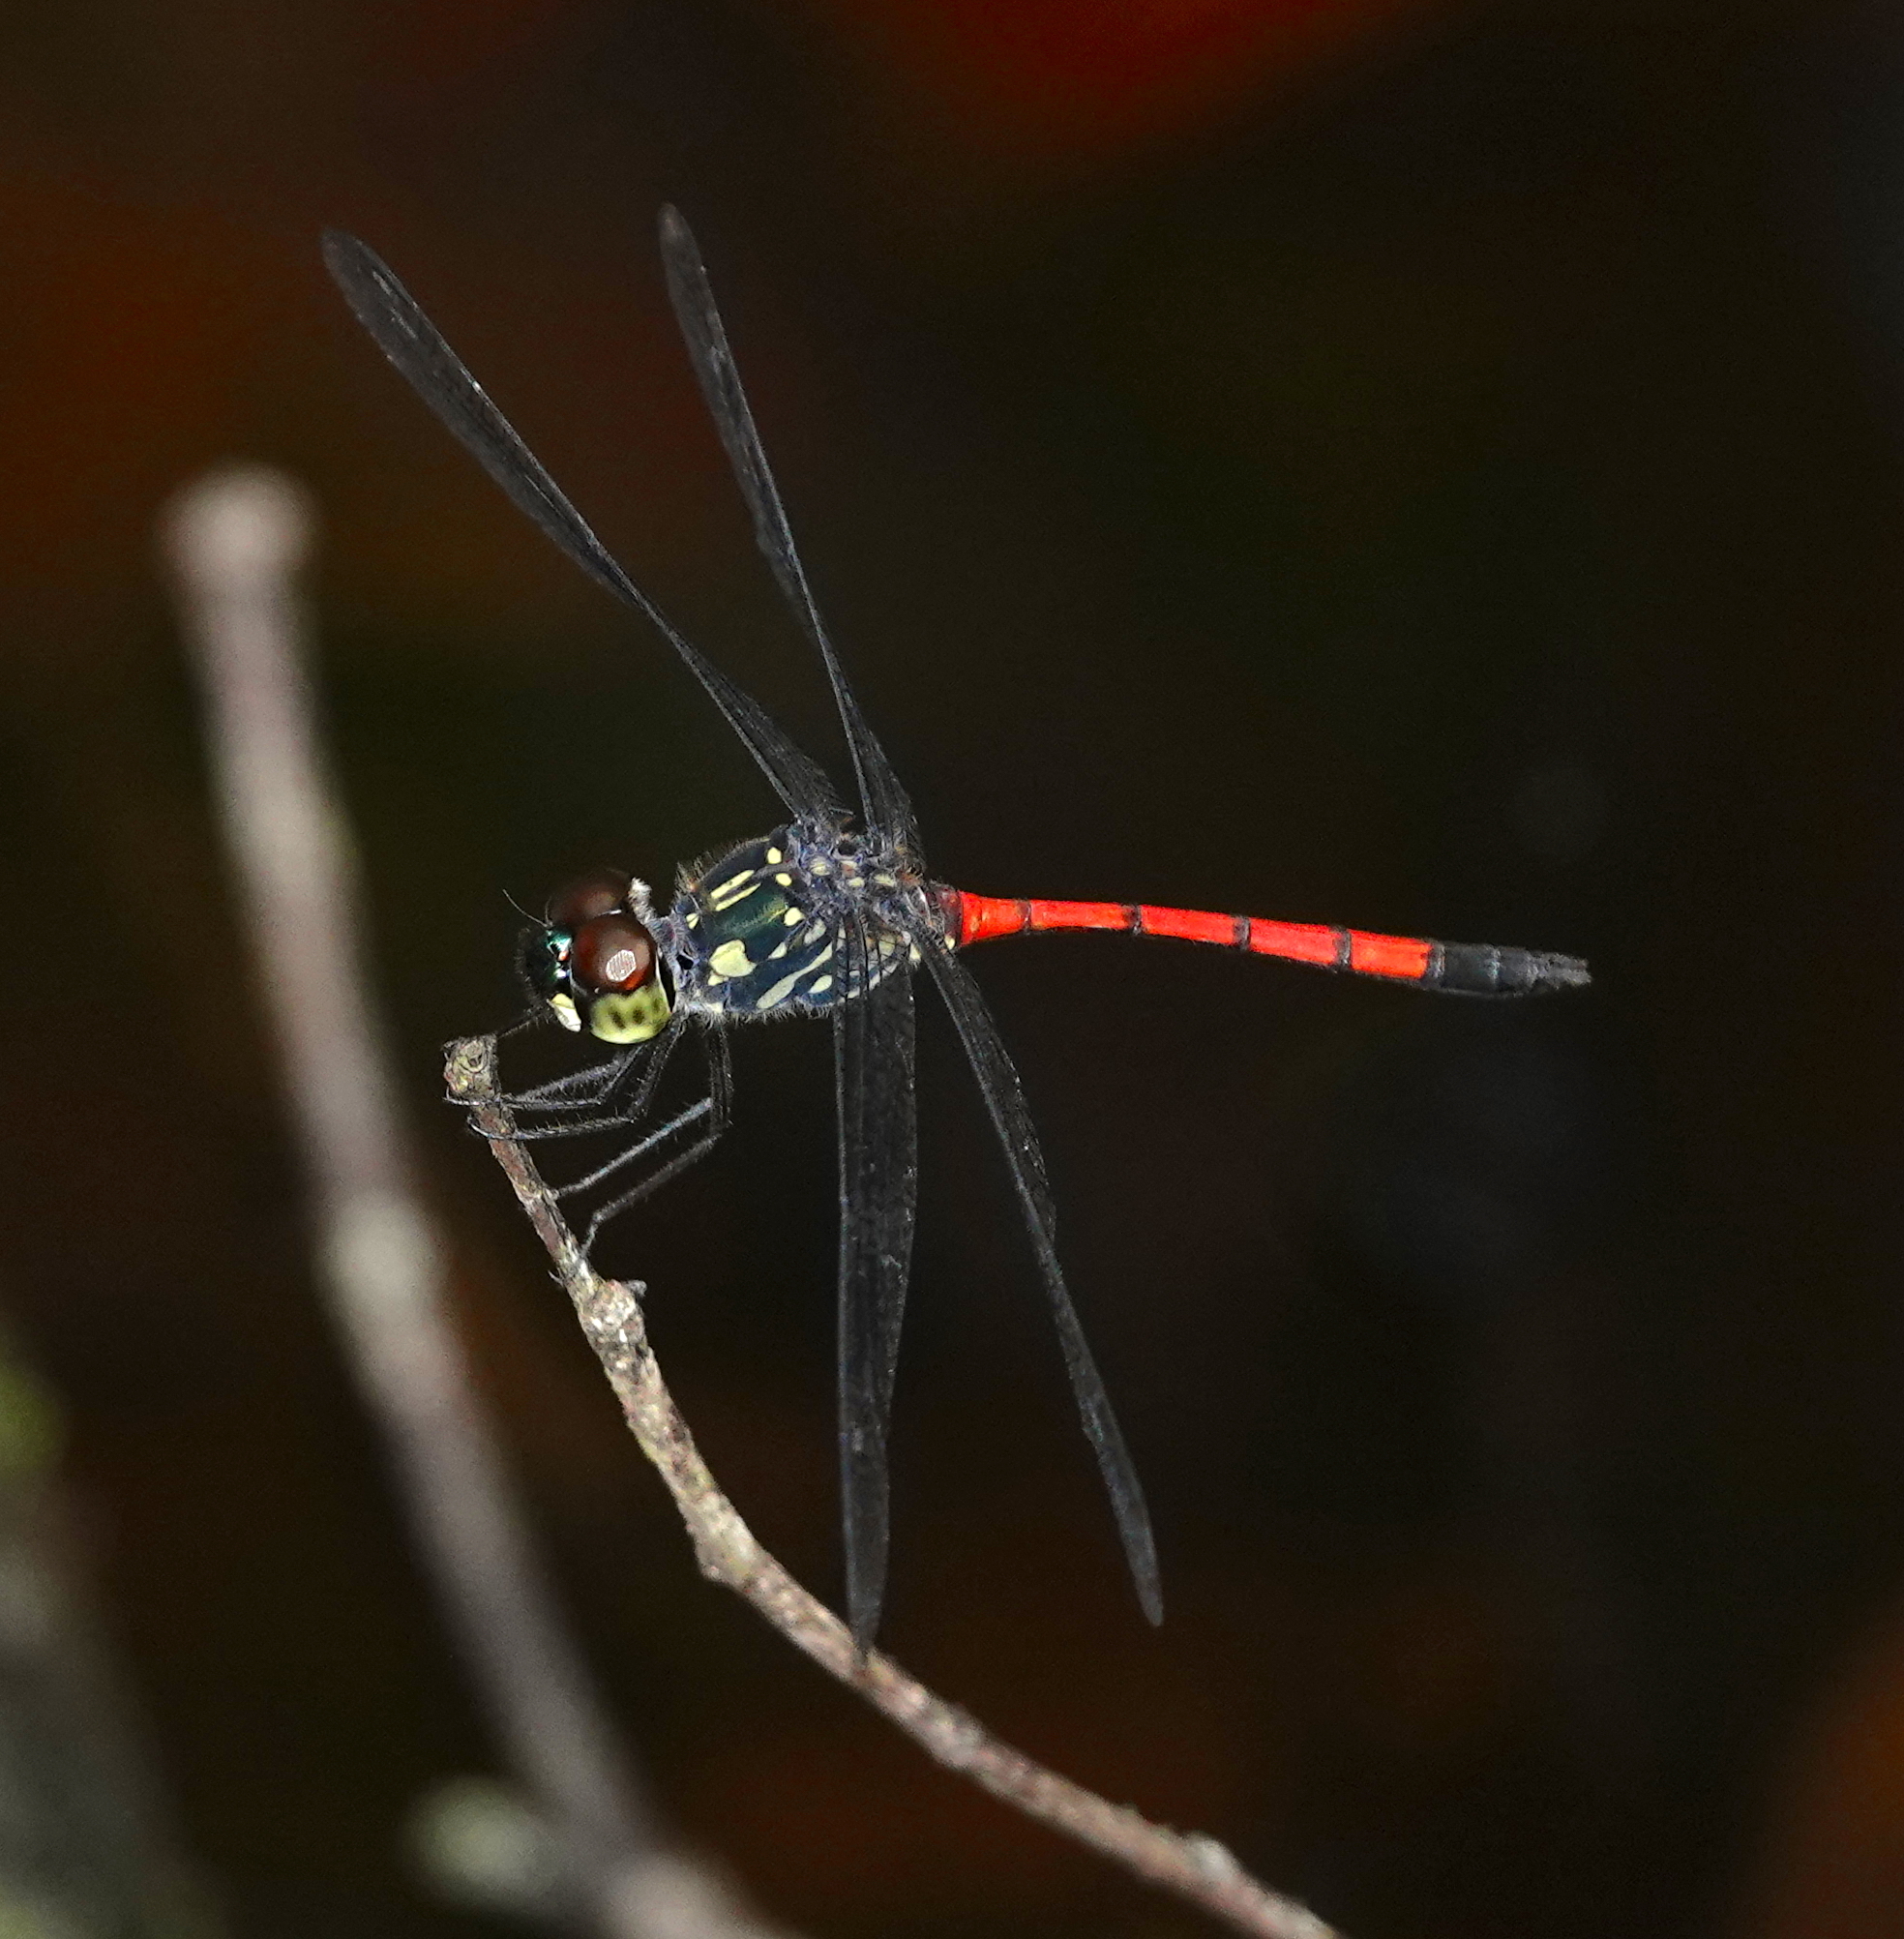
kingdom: Animalia
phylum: Arthropoda
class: Insecta
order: Odonata
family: Libellulidae
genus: Agrionoptera
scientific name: Agrionoptera insignis
